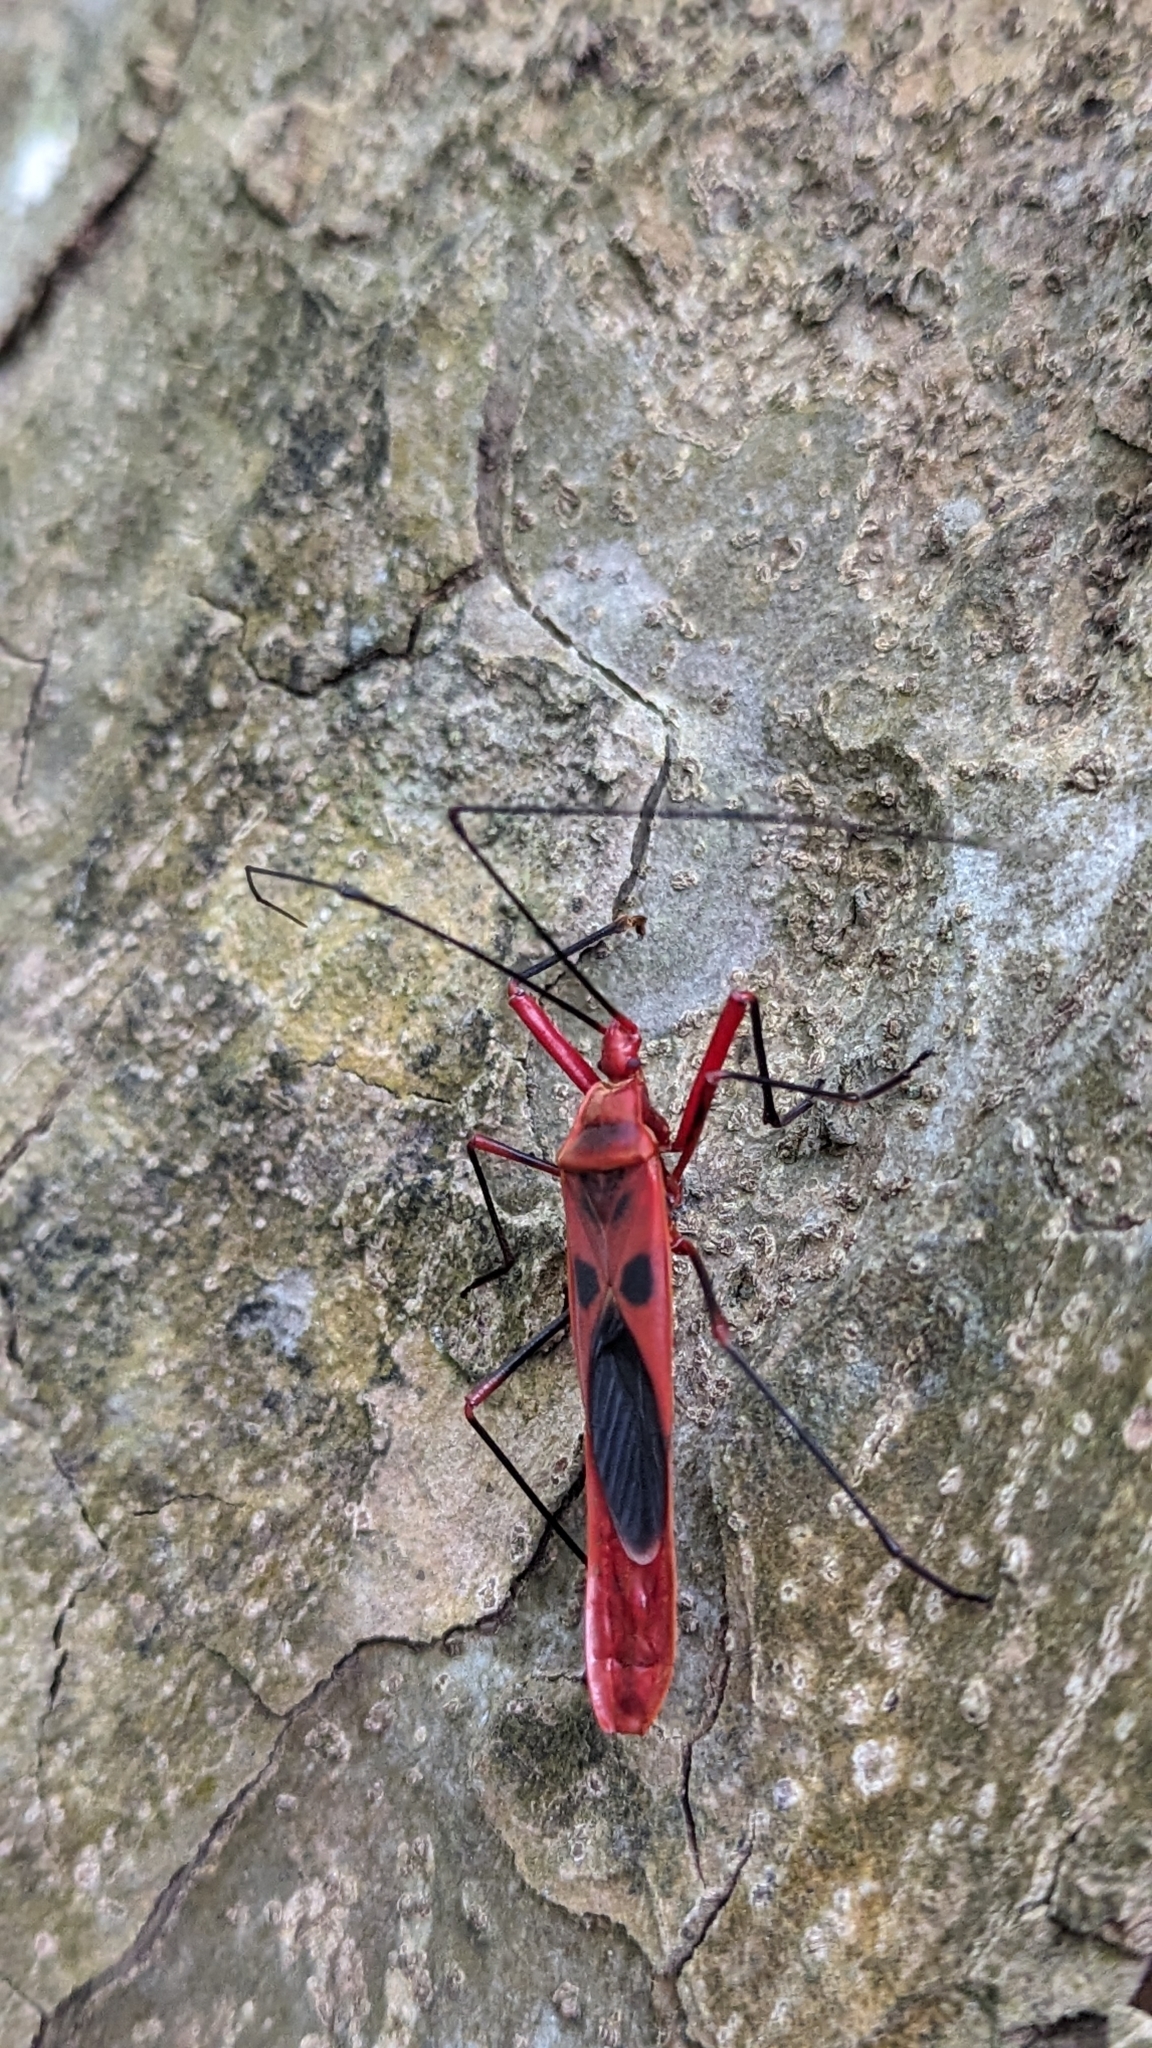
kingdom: Animalia
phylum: Arthropoda
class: Insecta
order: Hemiptera
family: Largidae
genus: Macrocheraia
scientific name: Macrocheraia grandis
